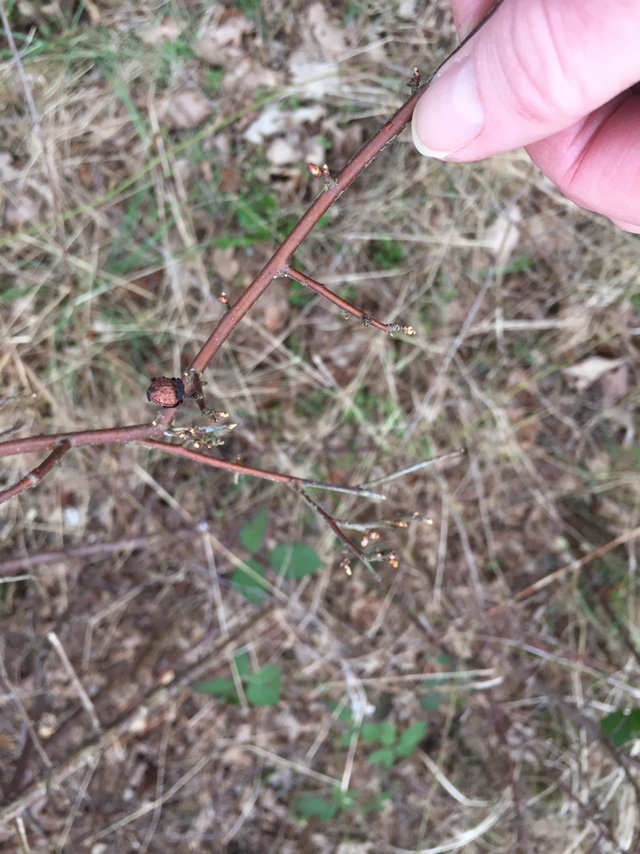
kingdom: Plantae
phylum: Tracheophyta
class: Magnoliopsida
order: Rosales
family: Rosaceae
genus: Prunus
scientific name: Prunus spinosa
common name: Blackthorn
